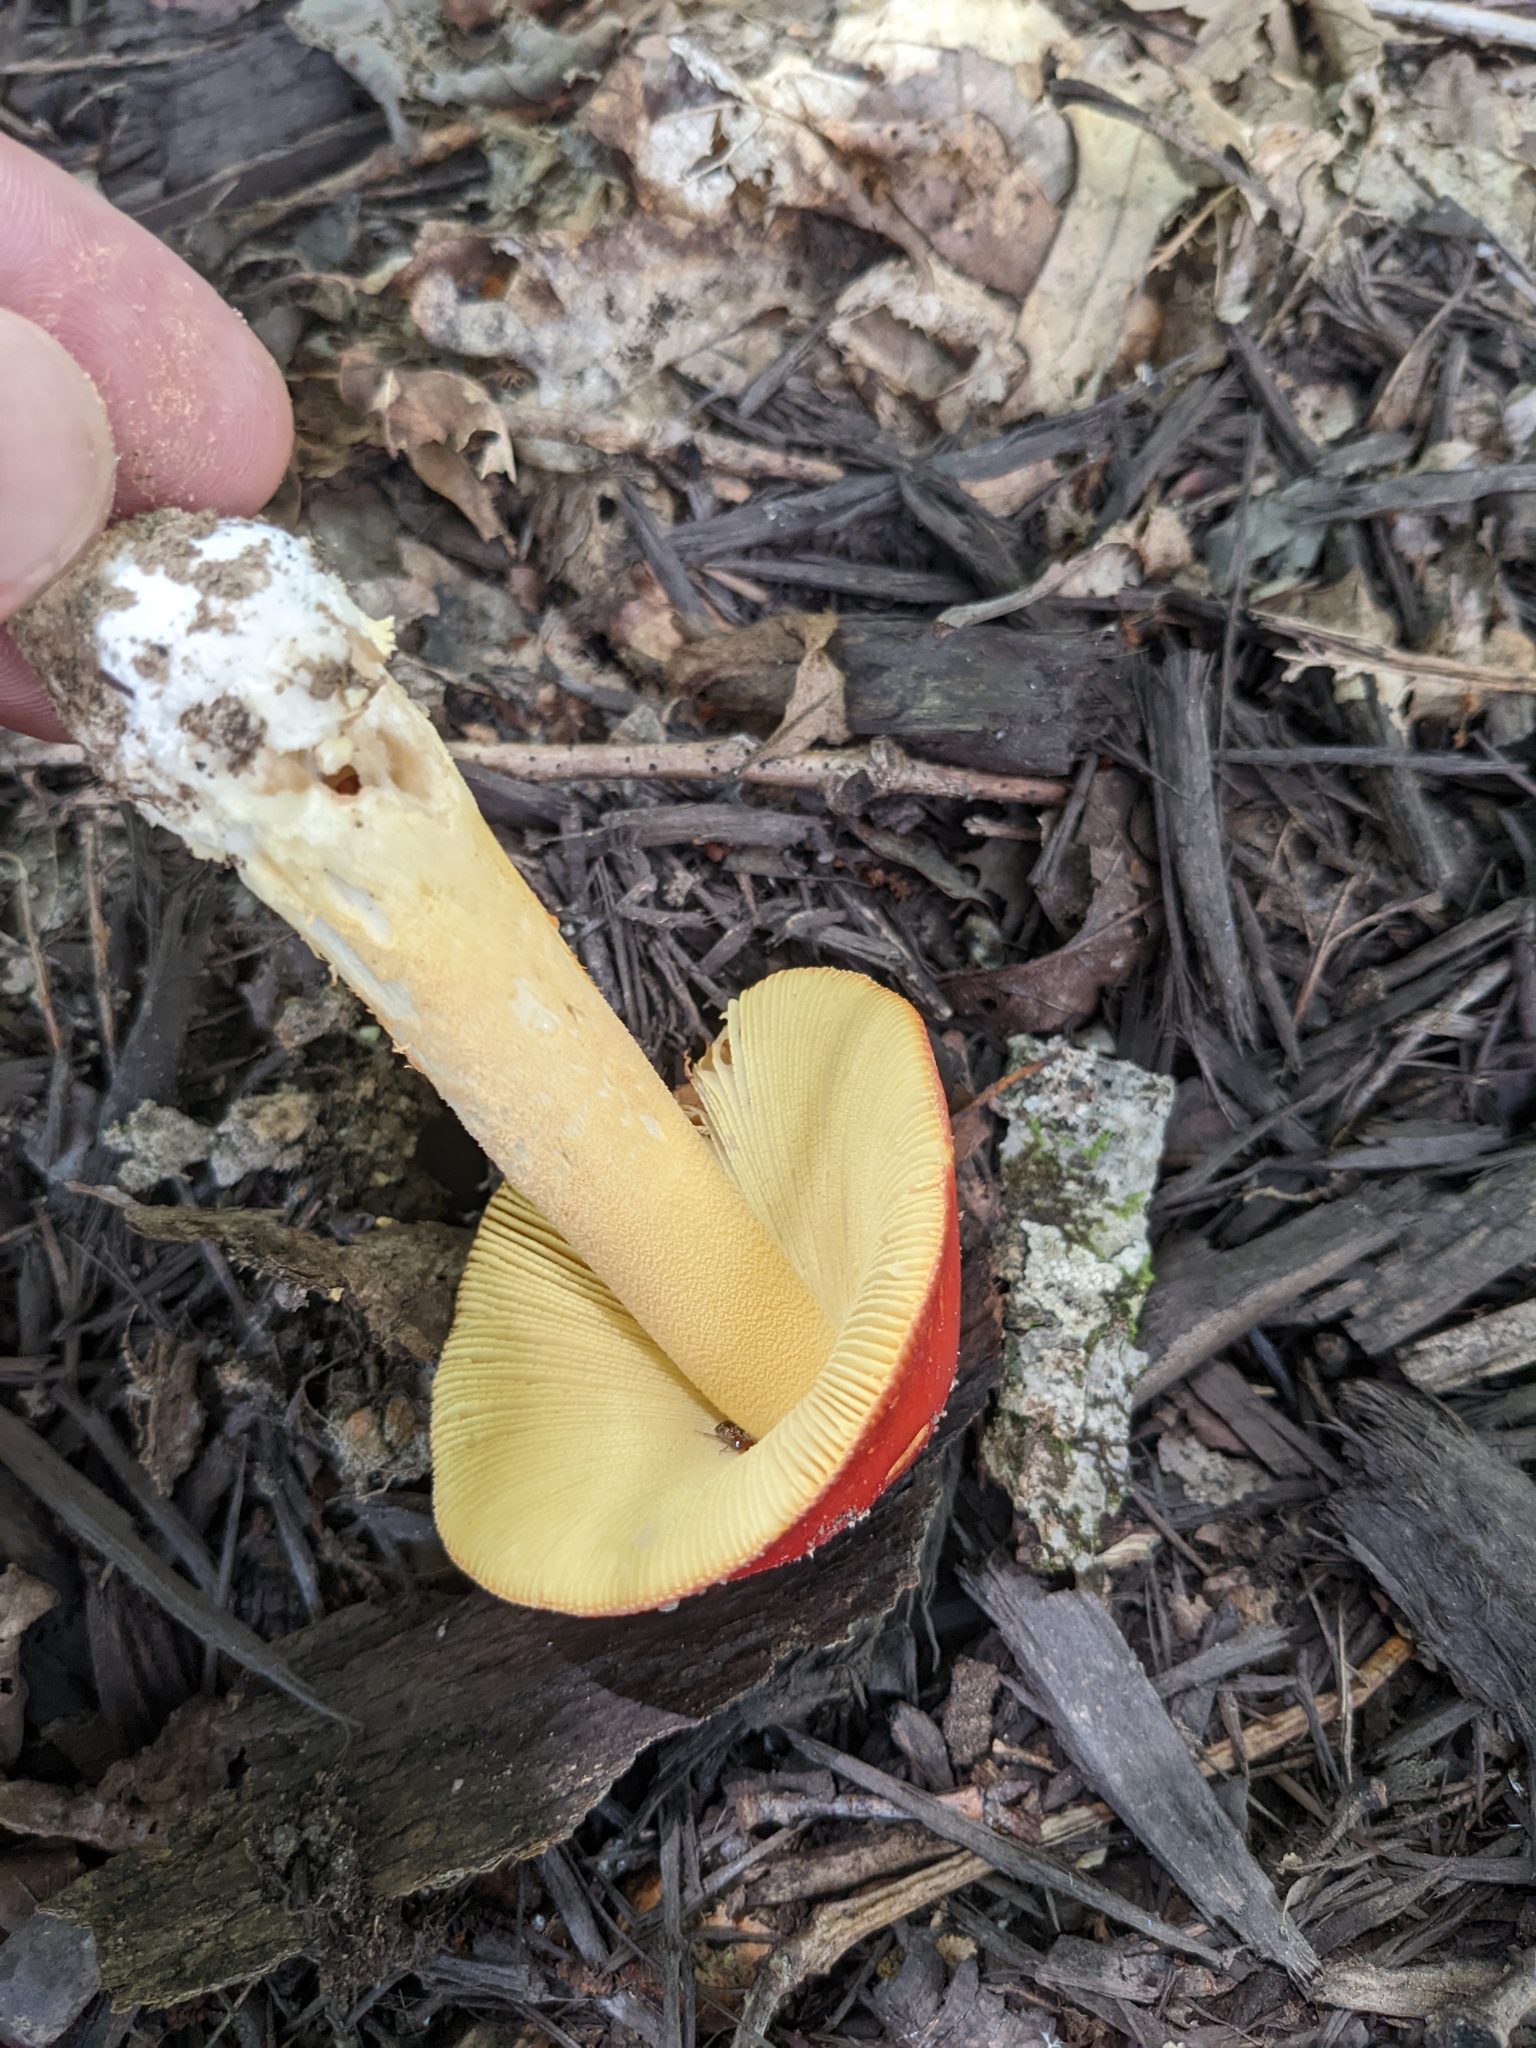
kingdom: Fungi
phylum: Basidiomycota
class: Agaricomycetes
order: Agaricales
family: Amanitaceae
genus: Amanita
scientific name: Amanita parcivolvata
